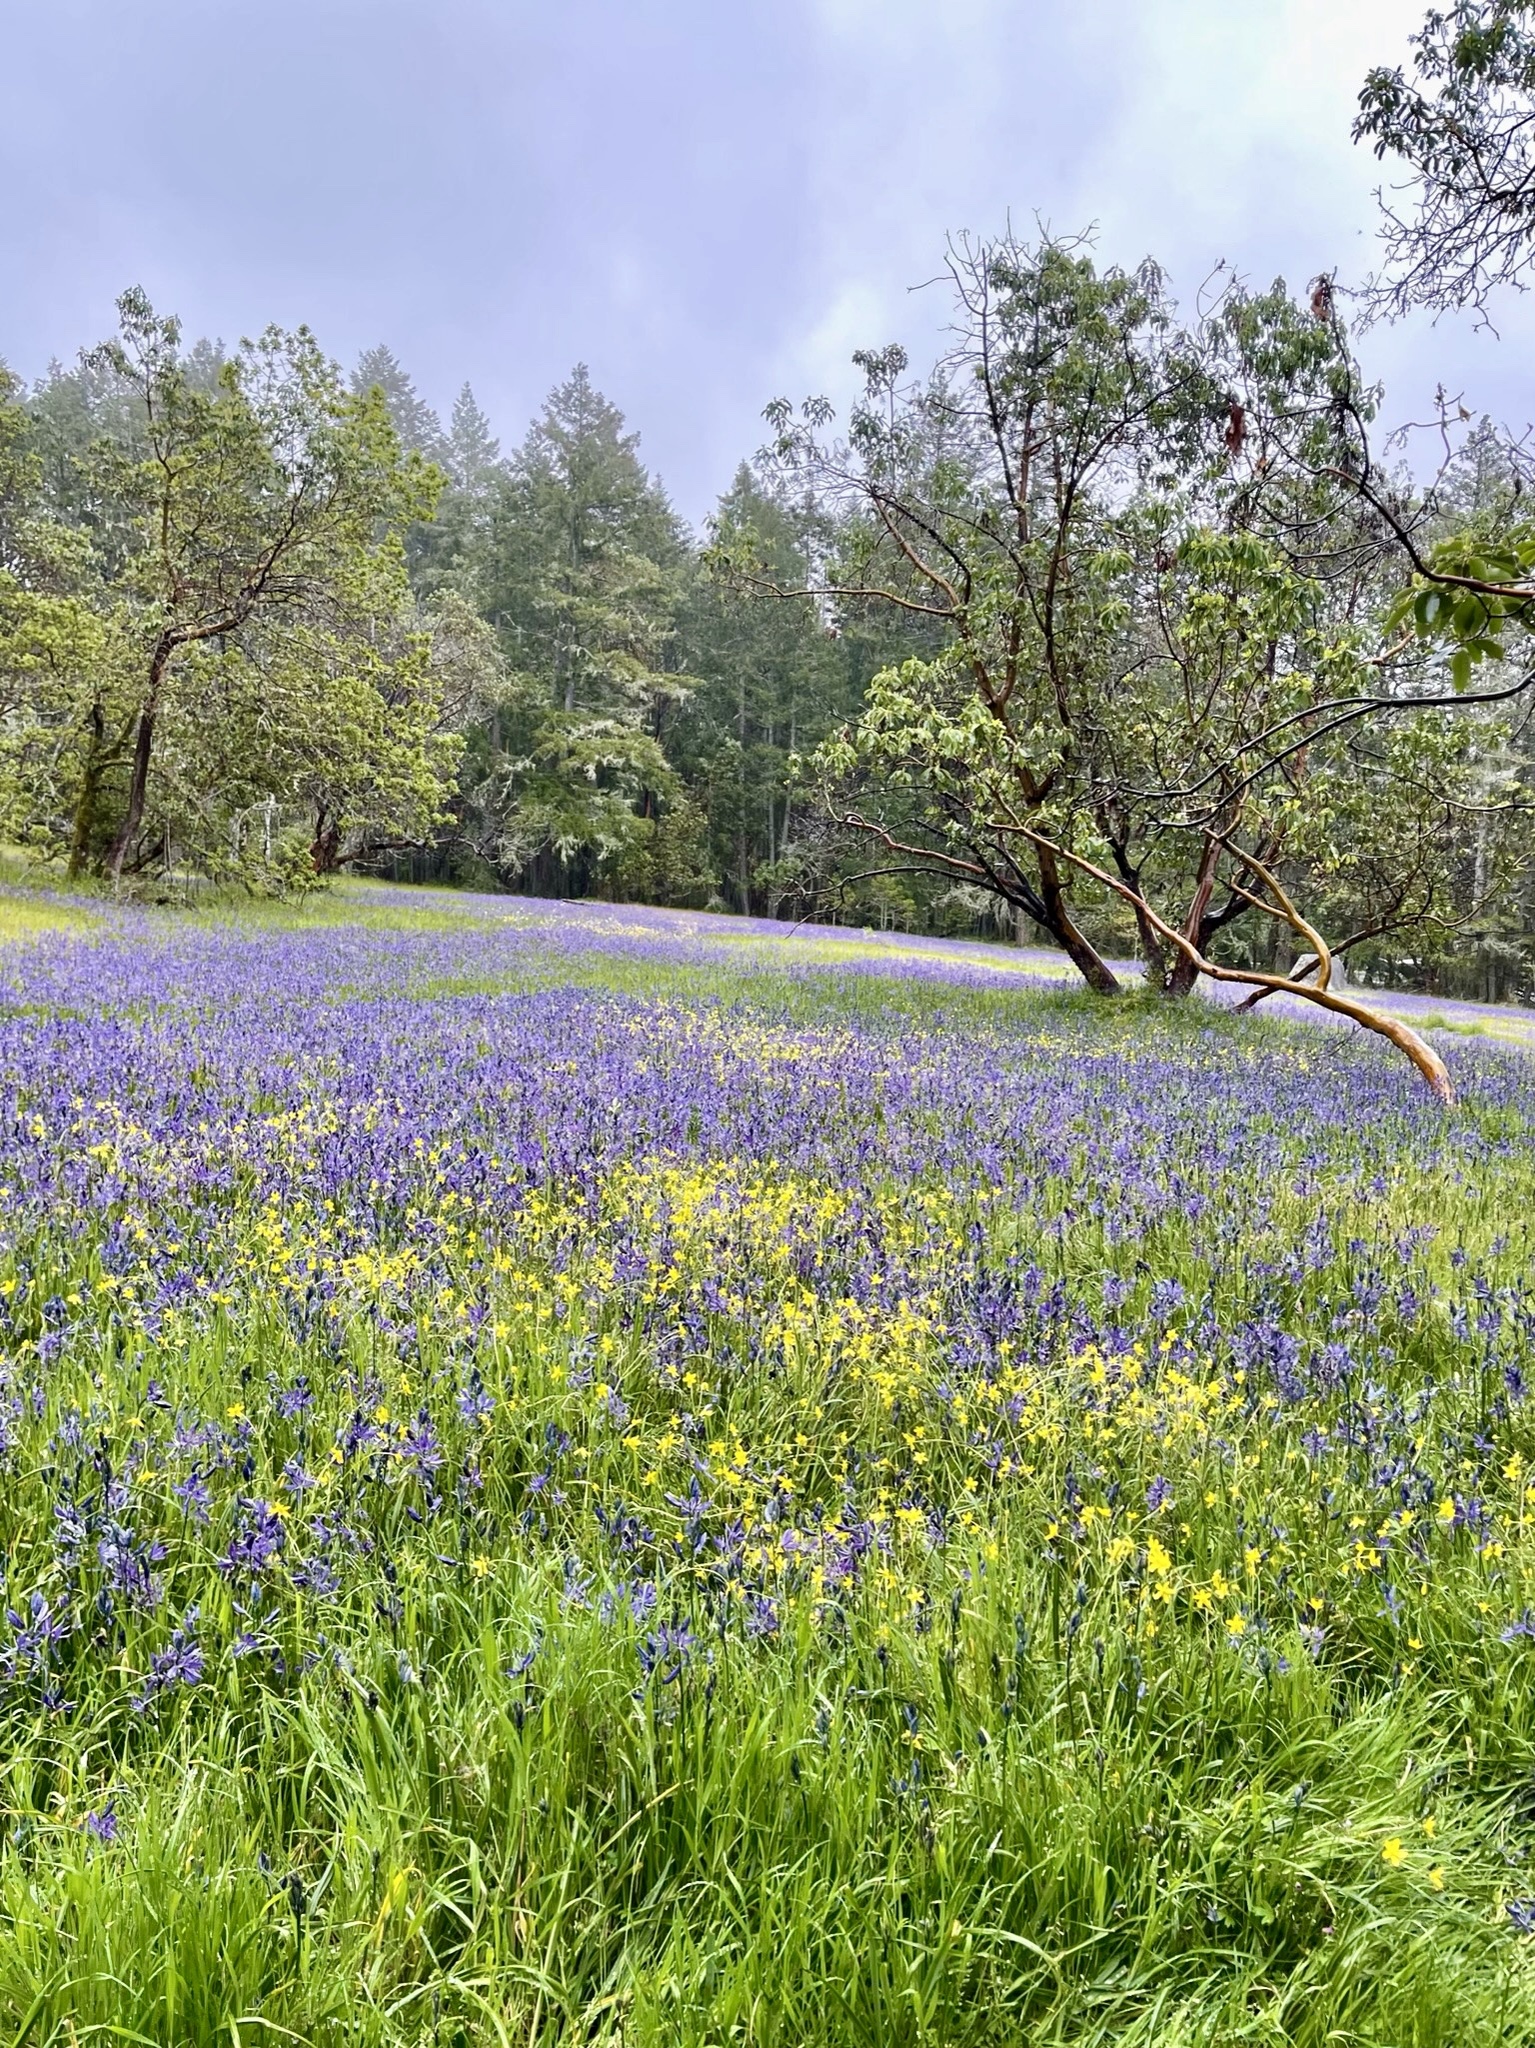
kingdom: Plantae
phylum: Tracheophyta
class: Liliopsida
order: Asparagales
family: Asparagaceae
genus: Camassia
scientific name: Camassia quamash
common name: Common camas
